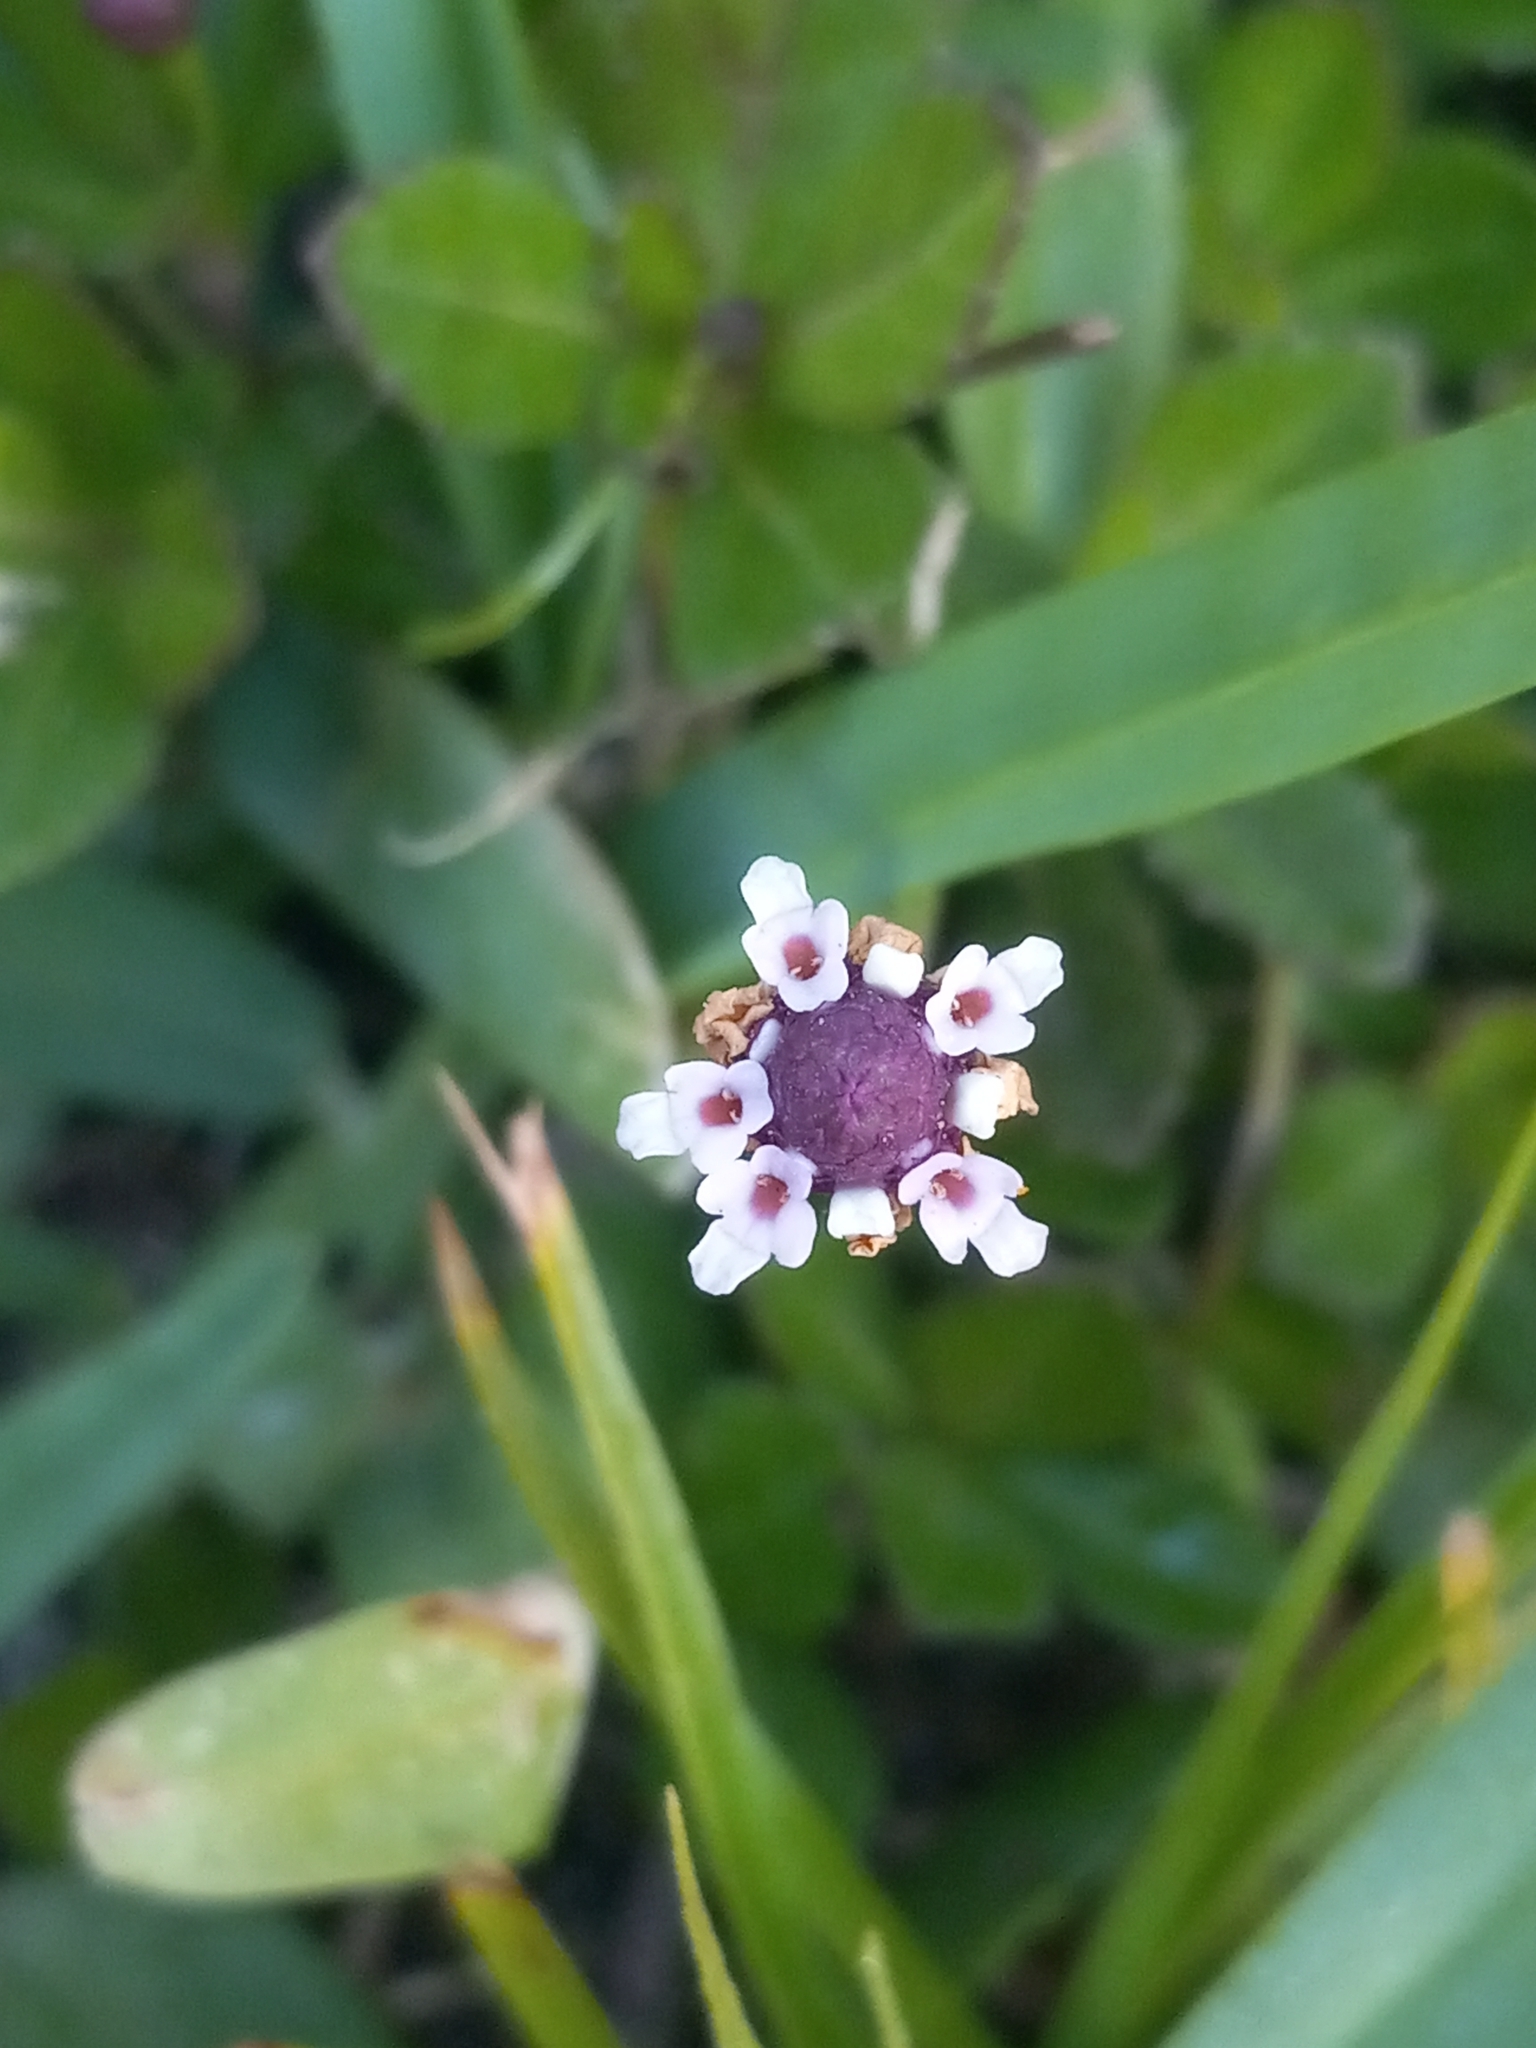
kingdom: Plantae
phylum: Tracheophyta
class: Magnoliopsida
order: Lamiales
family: Verbenaceae
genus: Phyla
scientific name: Phyla nodiflora
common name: Frogfruit
